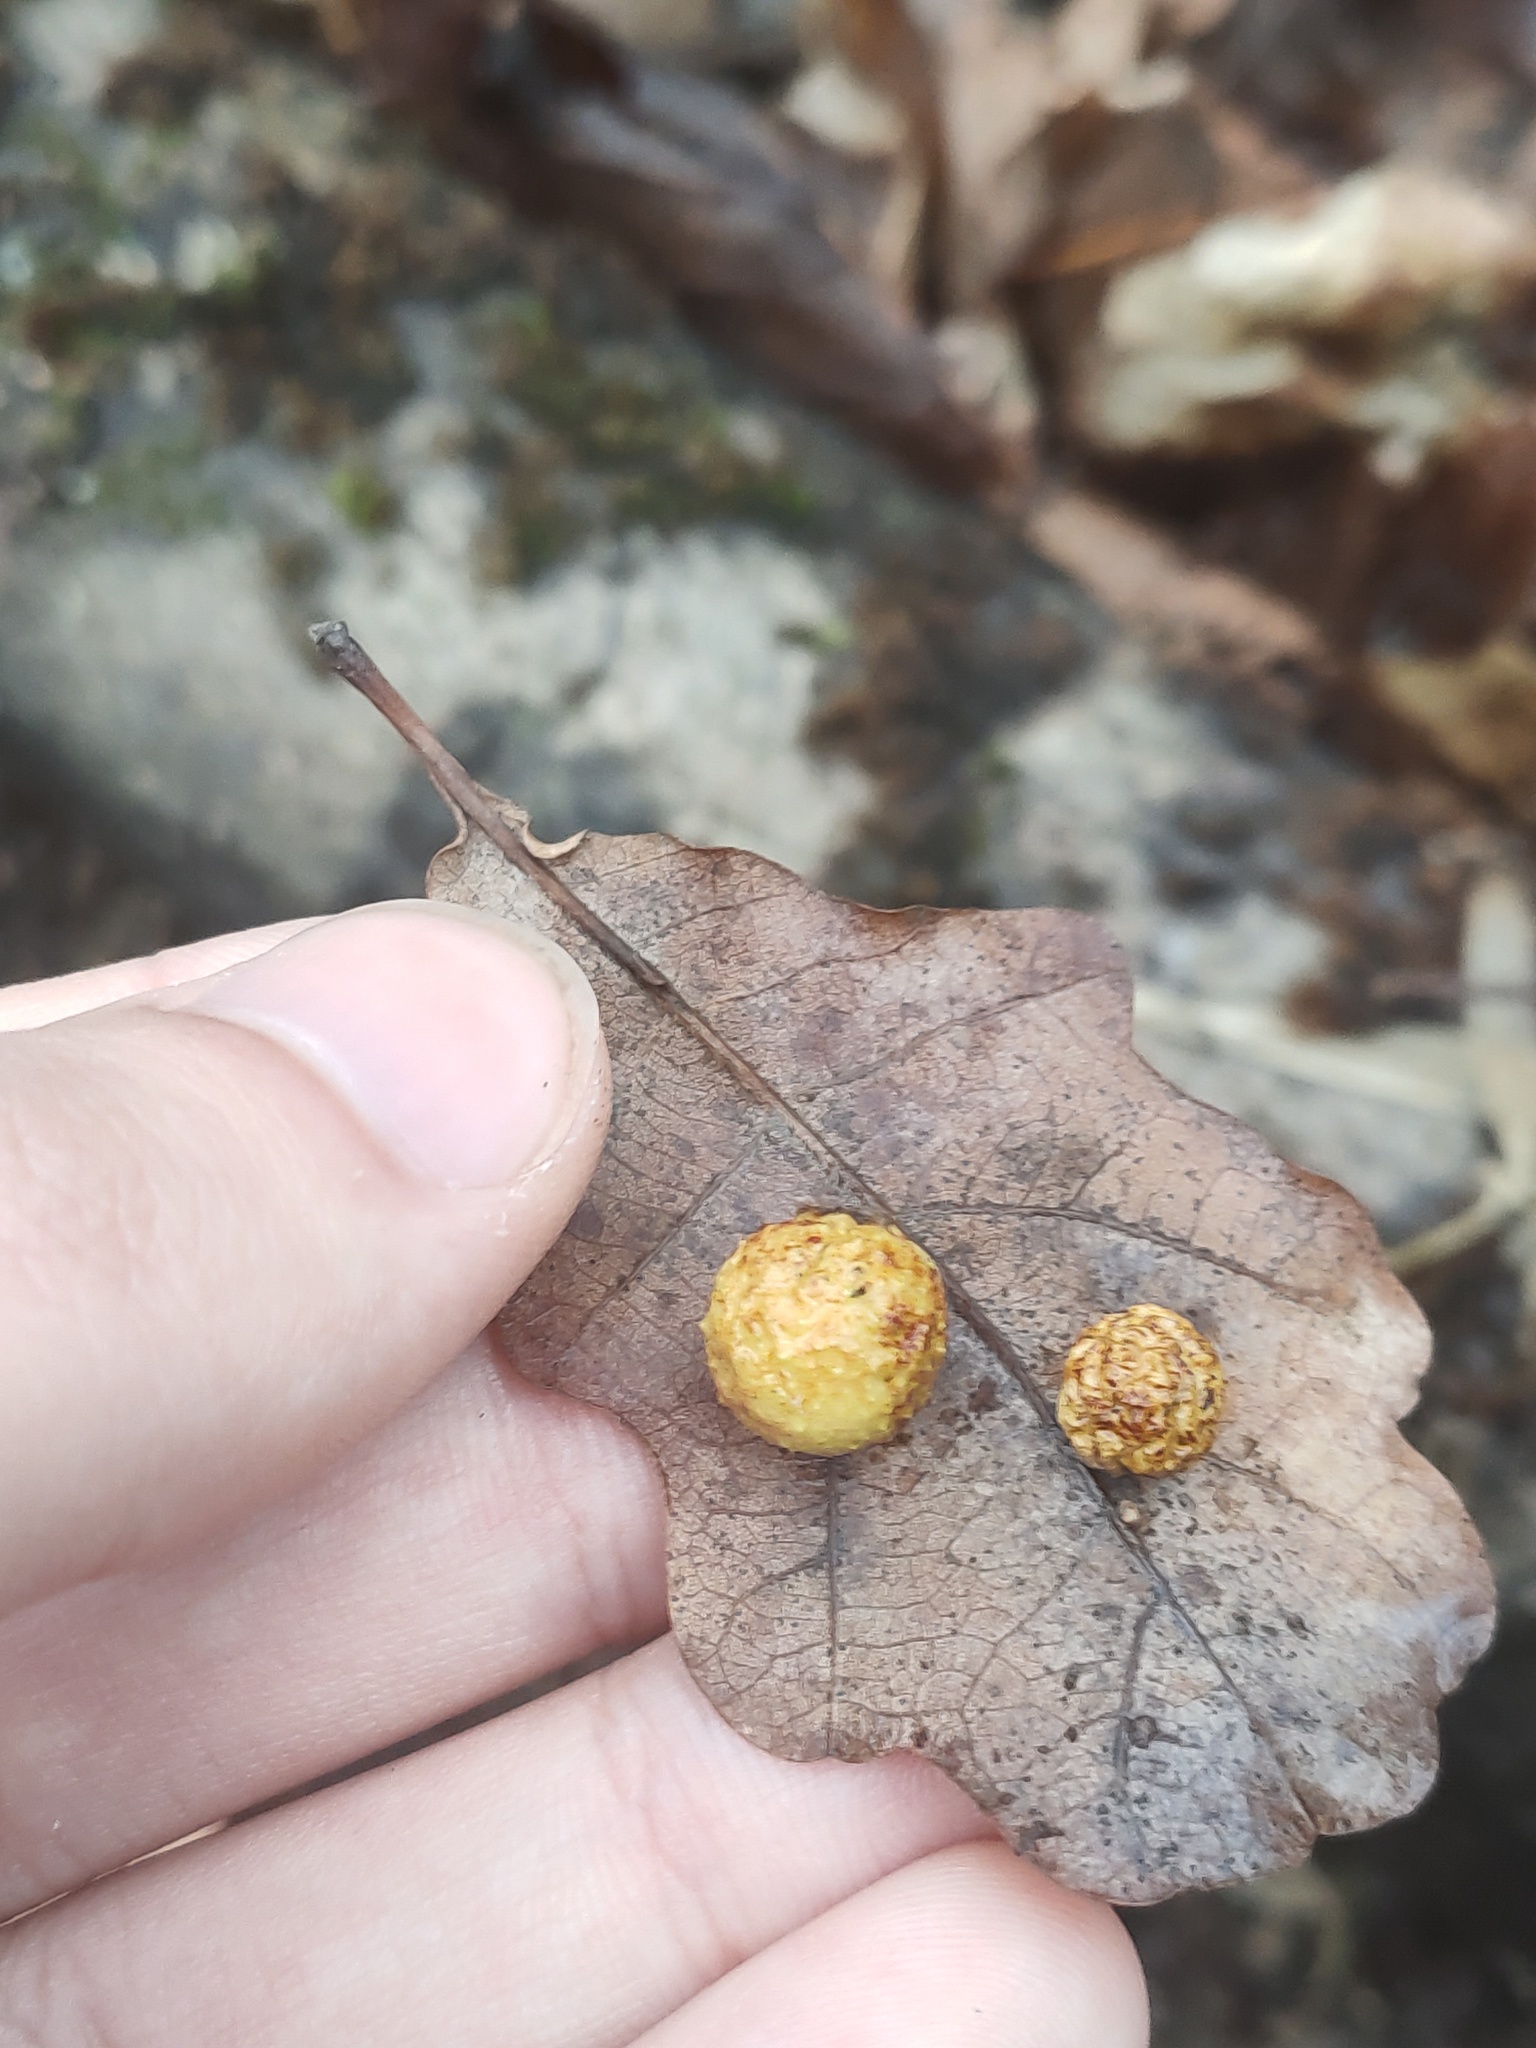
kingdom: Animalia
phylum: Arthropoda
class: Insecta
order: Hymenoptera
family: Cynipidae
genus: Cynips
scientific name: Cynips quercusfolii
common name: Cherry gall
